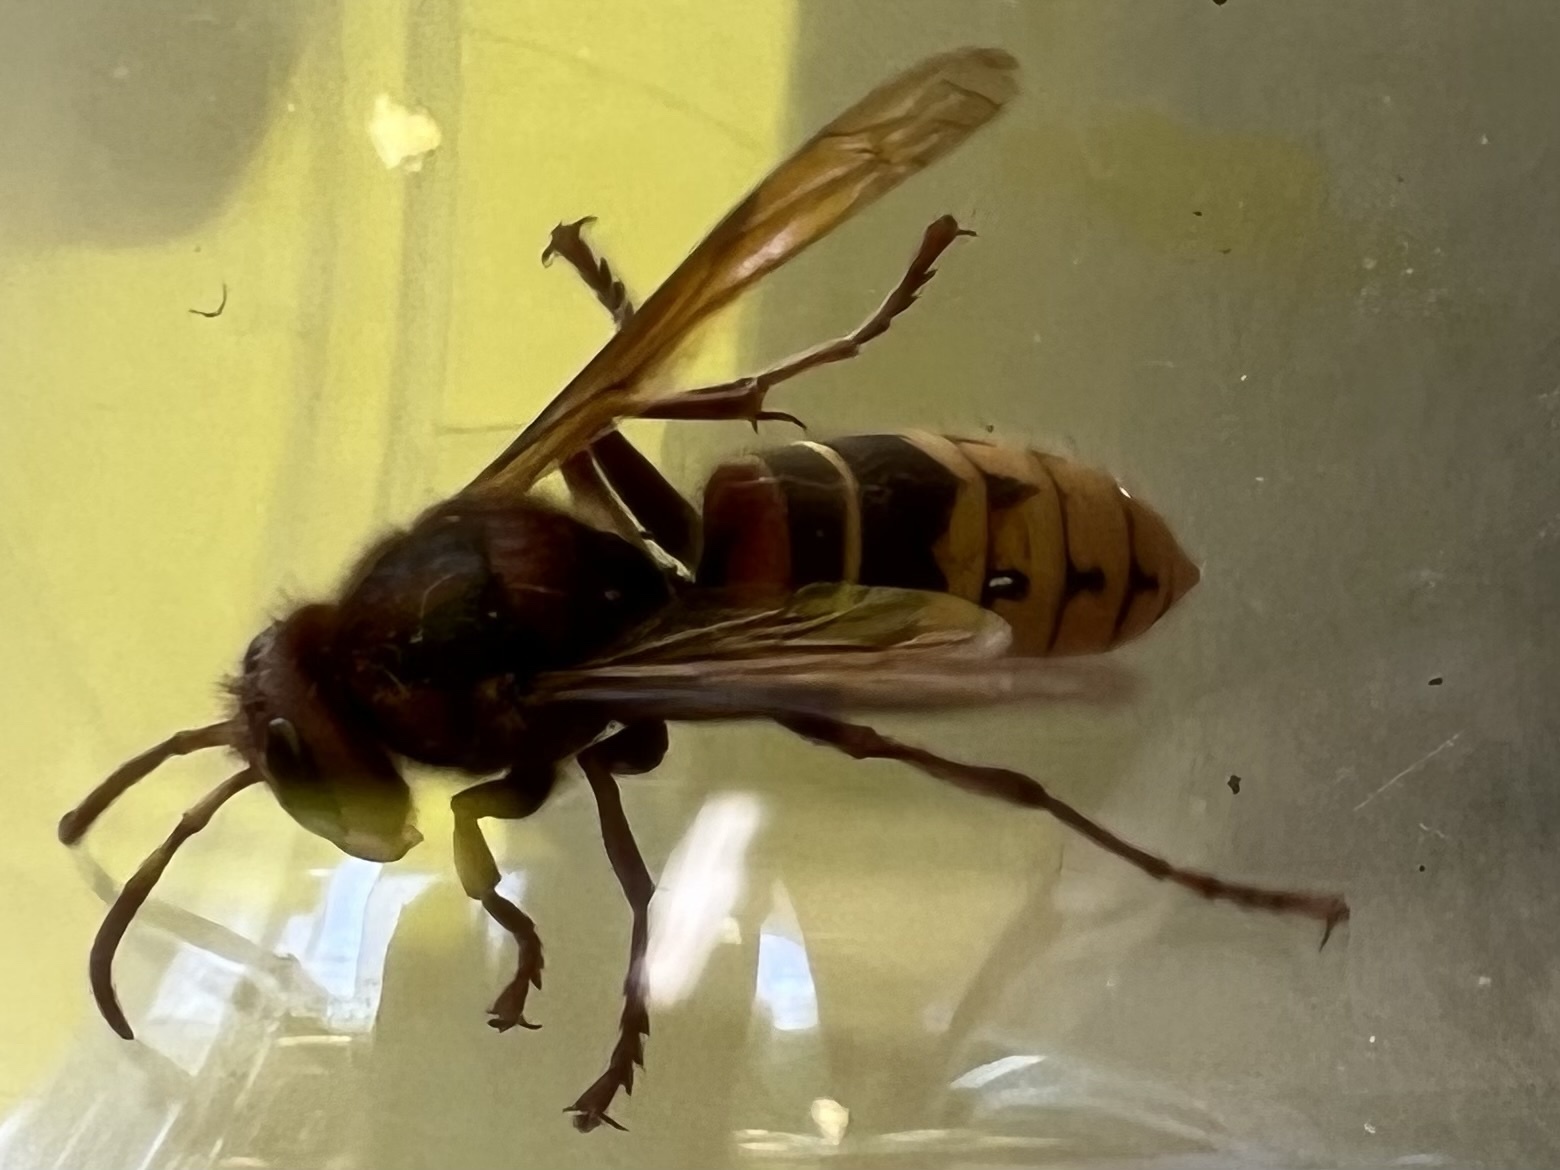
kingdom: Animalia
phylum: Arthropoda
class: Insecta
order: Hymenoptera
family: Vespidae
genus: Vespa
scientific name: Vespa crabro
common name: Hornet
